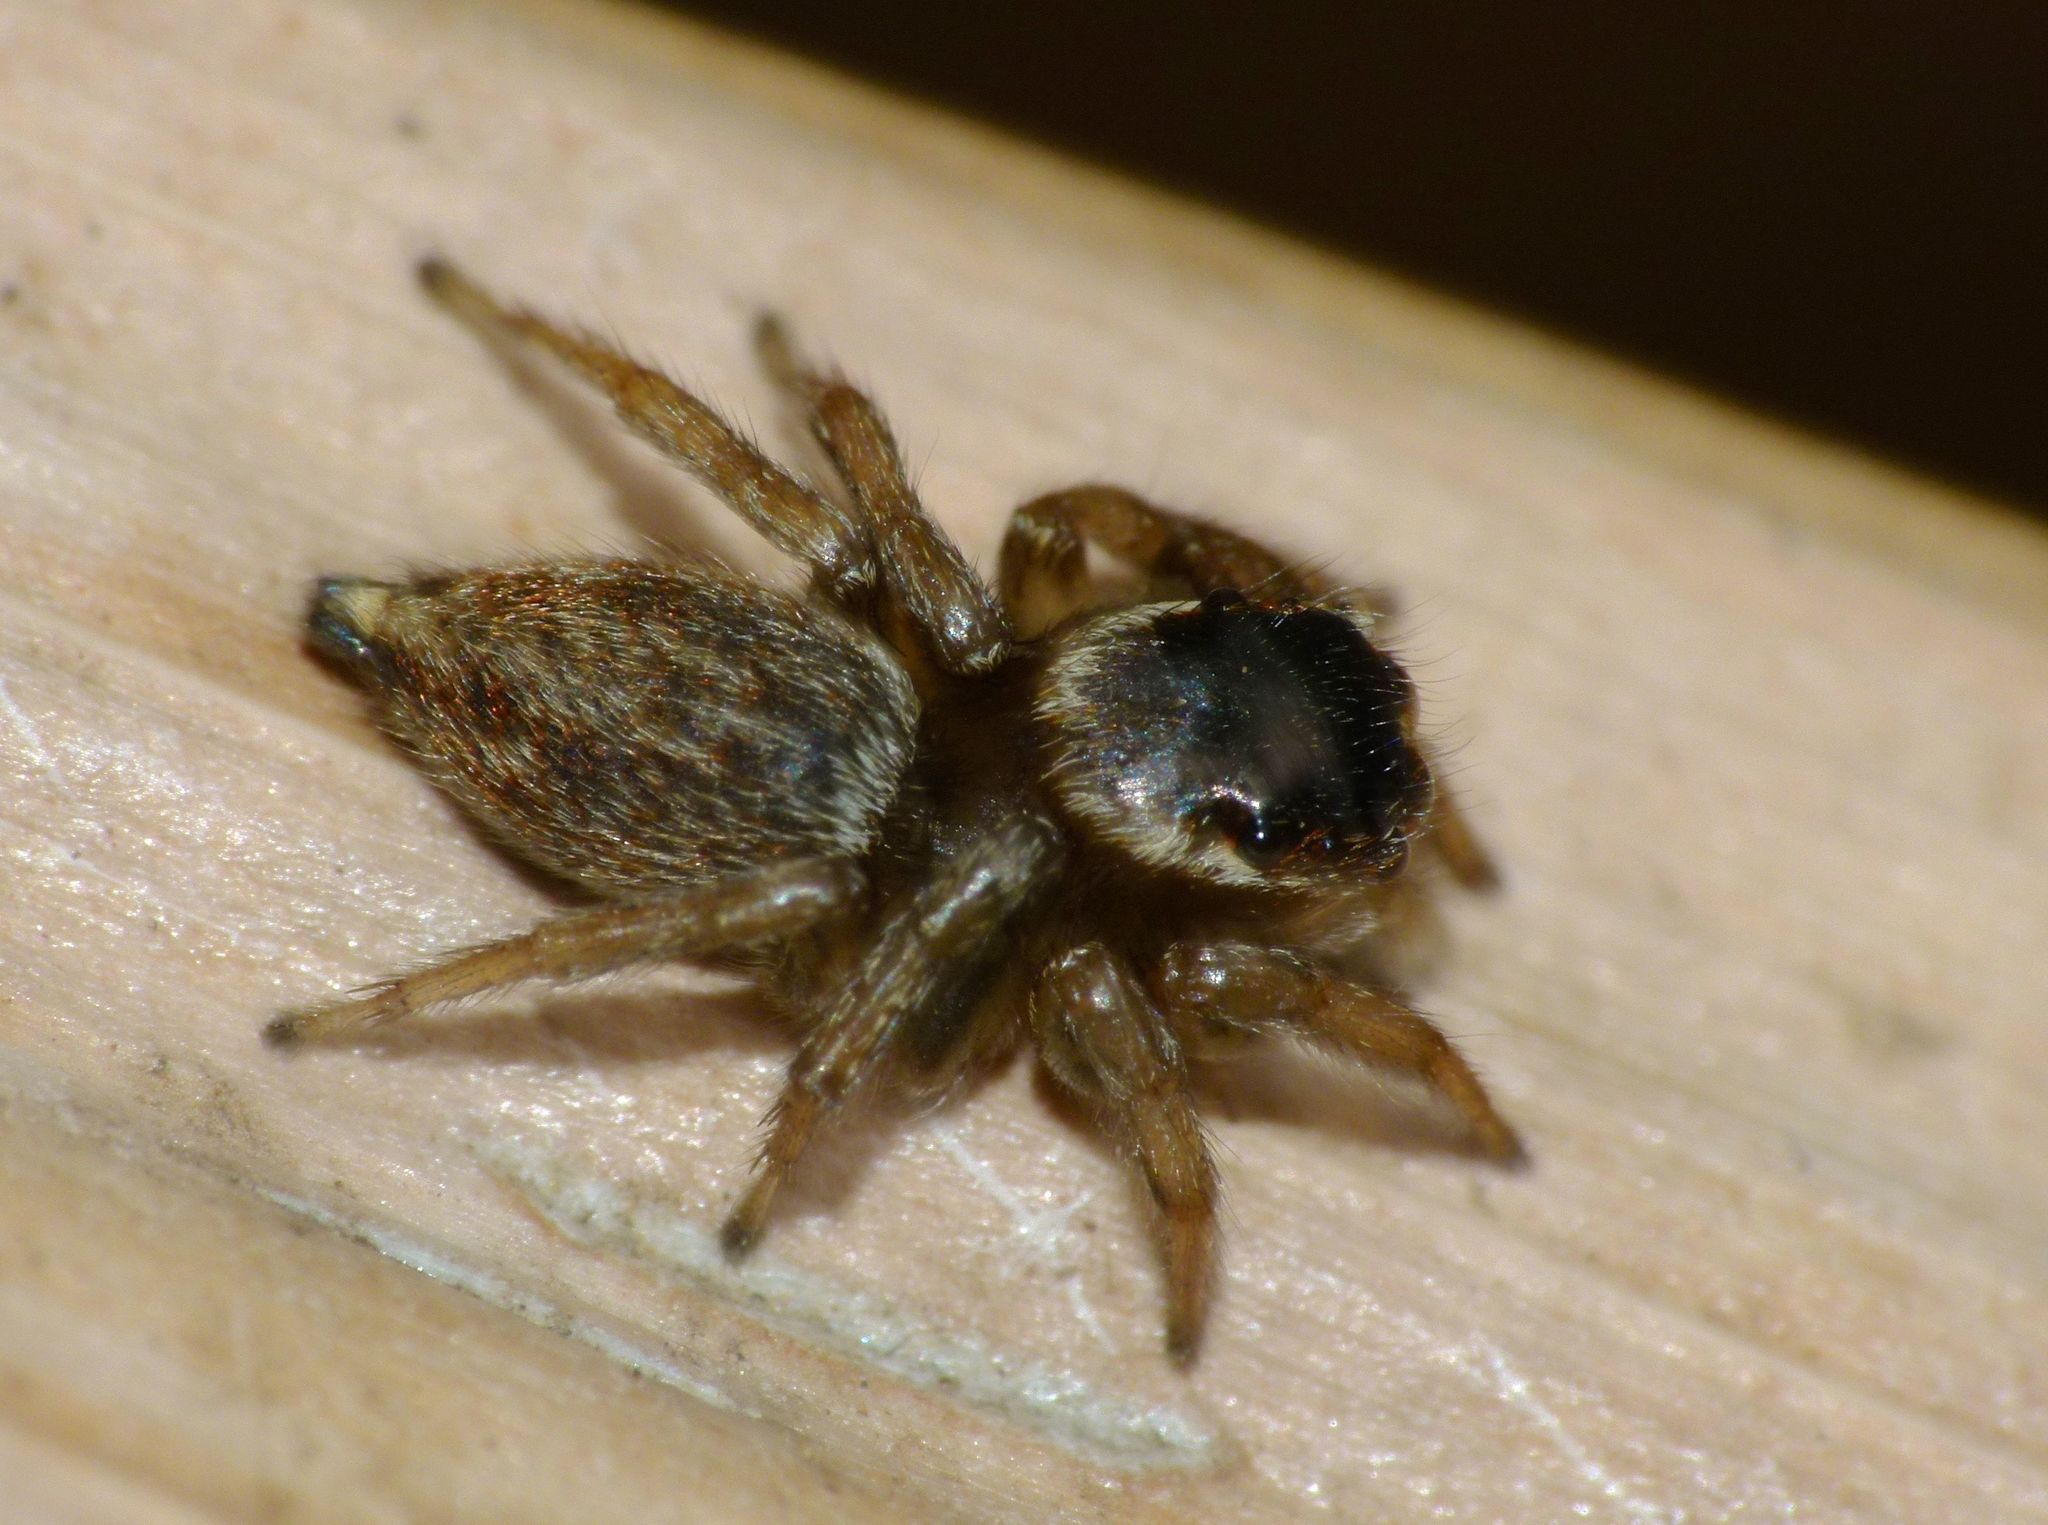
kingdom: Animalia
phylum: Arthropoda
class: Arachnida
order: Araneae
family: Salticidae
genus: Maratus
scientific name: Maratus scutulatus
